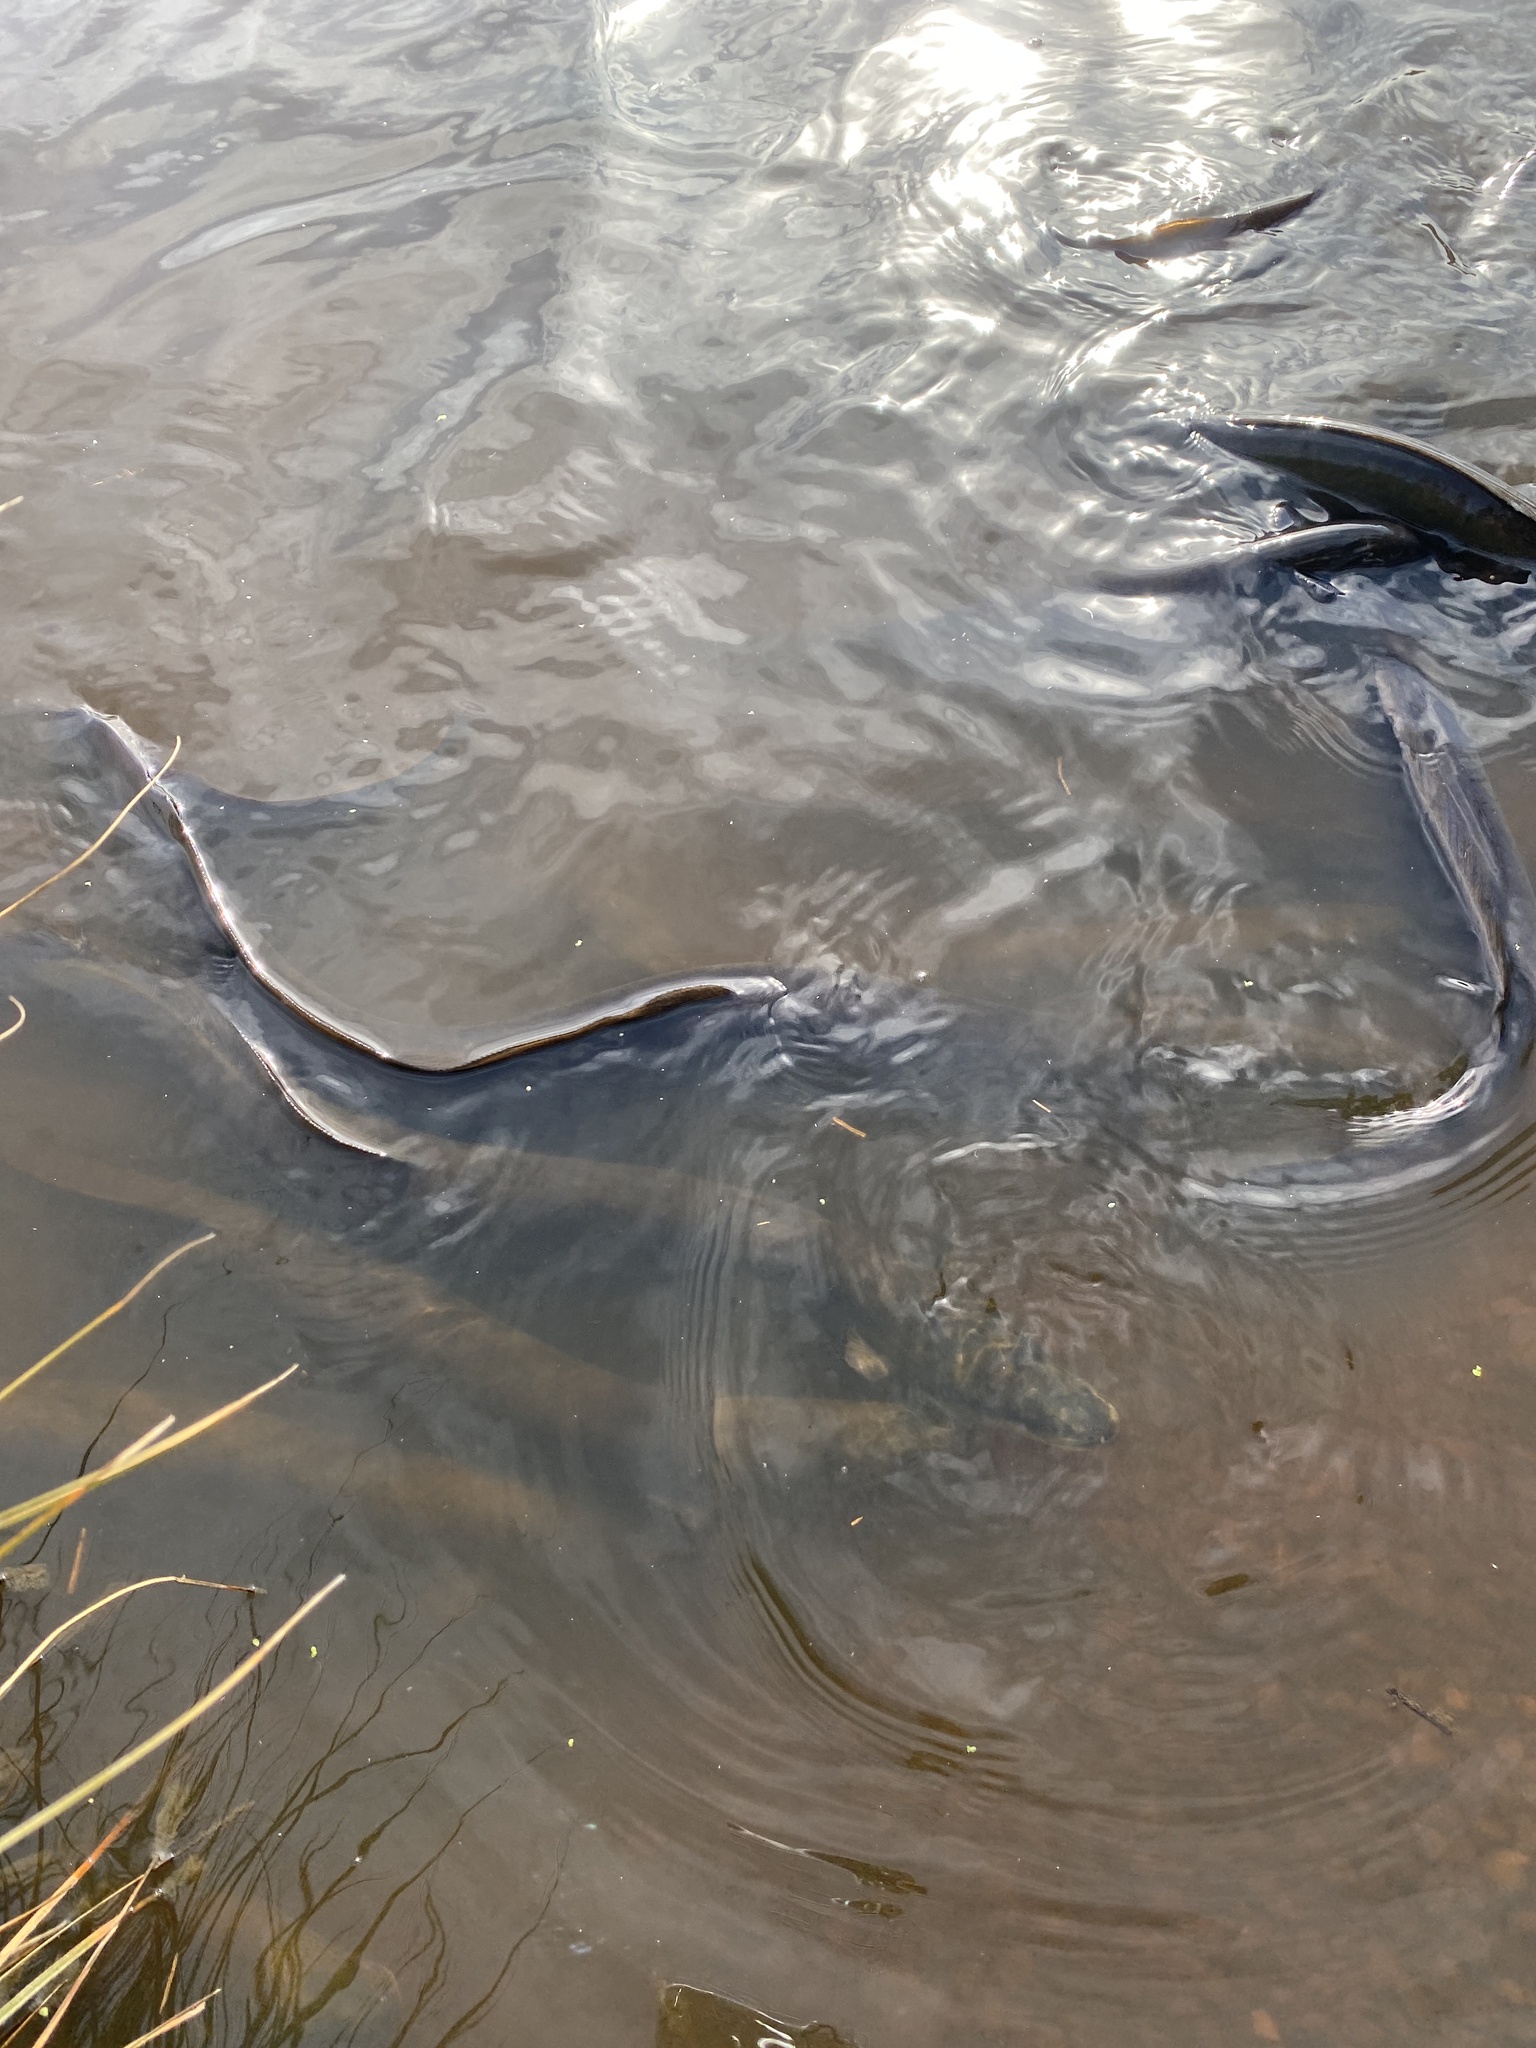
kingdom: Animalia
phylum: Chordata
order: Anguilliformes
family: Anguillidae
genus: Anguilla
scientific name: Anguilla australis
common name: Shortfin eel
